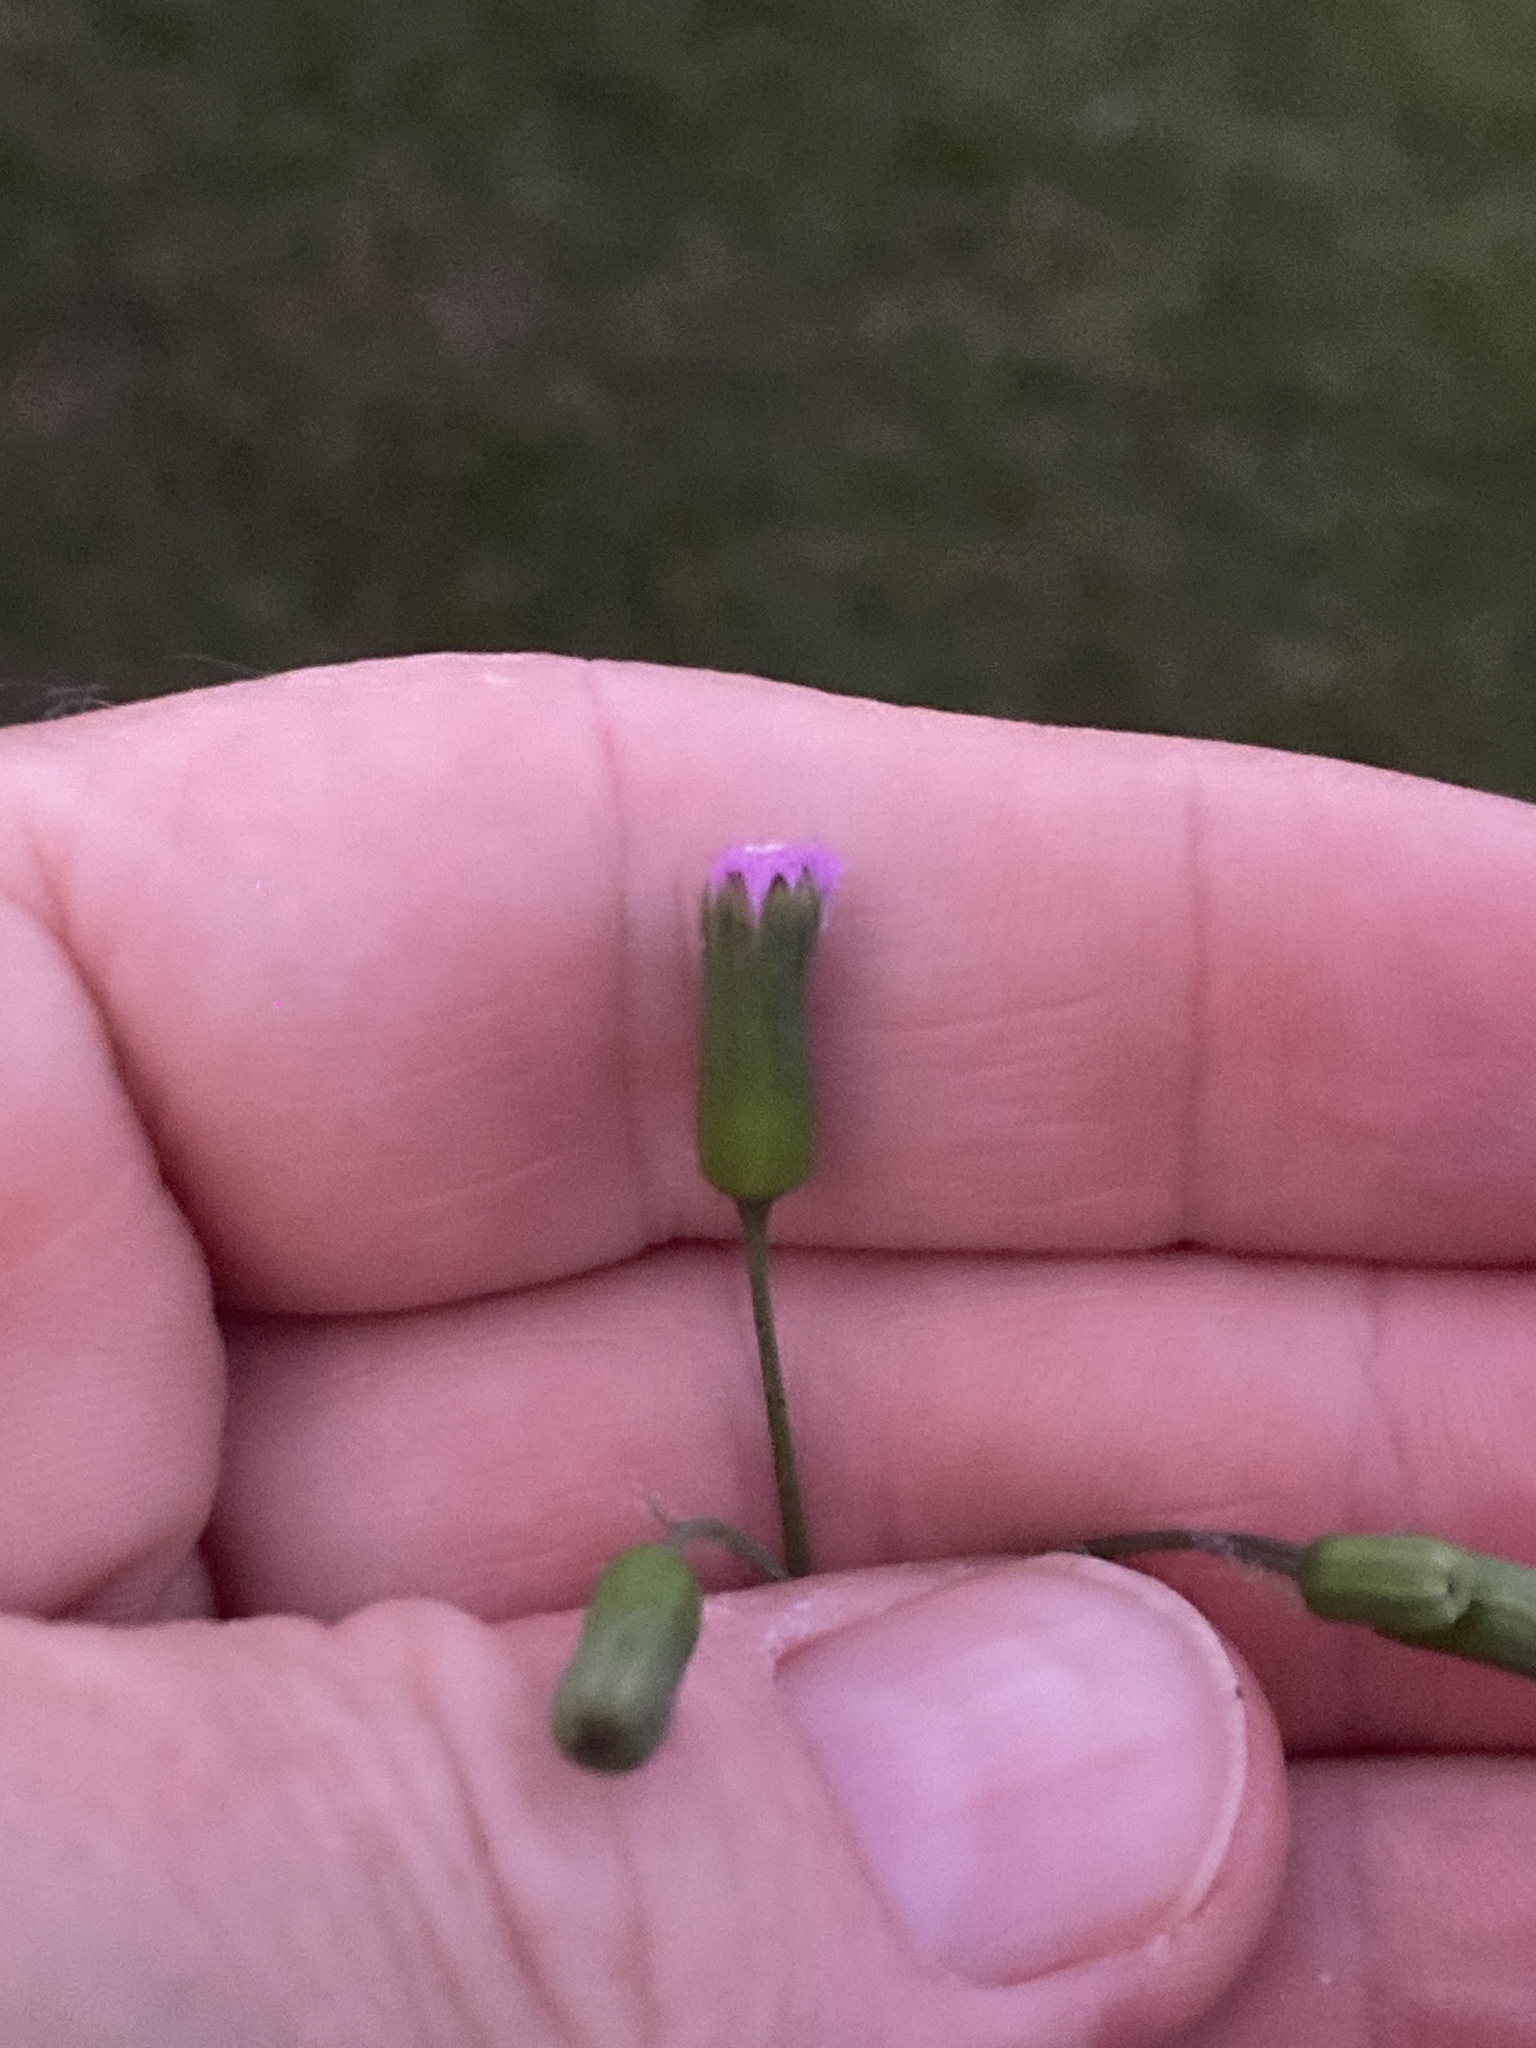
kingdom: Plantae
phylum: Tracheophyta
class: Magnoliopsida
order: Asterales
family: Asteraceae
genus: Emilia
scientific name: Emilia javanica
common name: Tassel-flower
